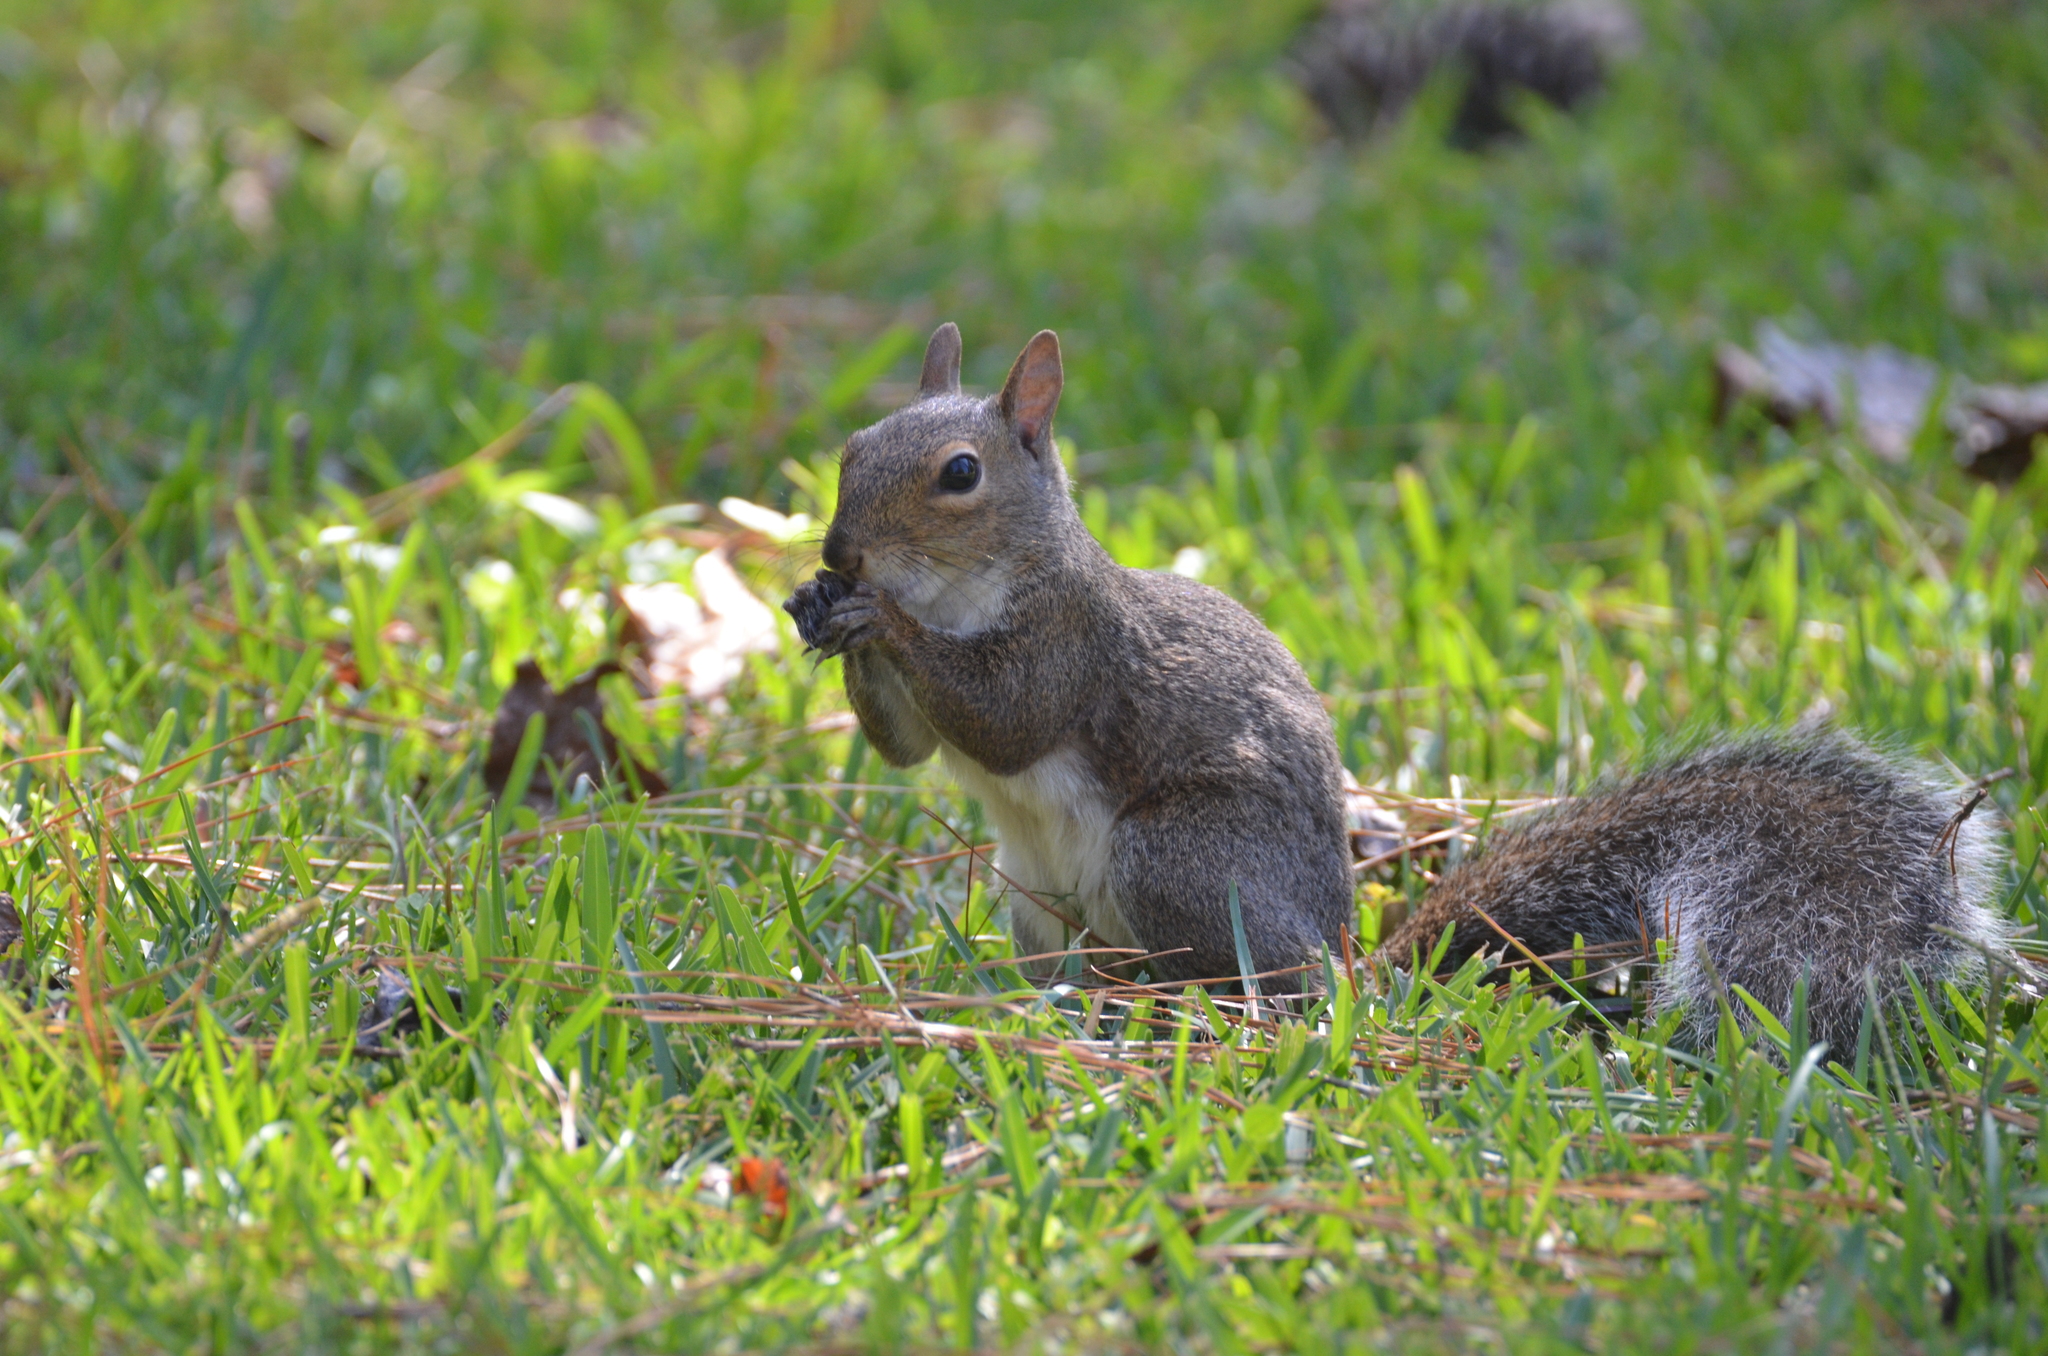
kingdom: Animalia
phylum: Chordata
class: Mammalia
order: Rodentia
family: Sciuridae
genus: Sciurus
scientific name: Sciurus carolinensis
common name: Eastern gray squirrel
